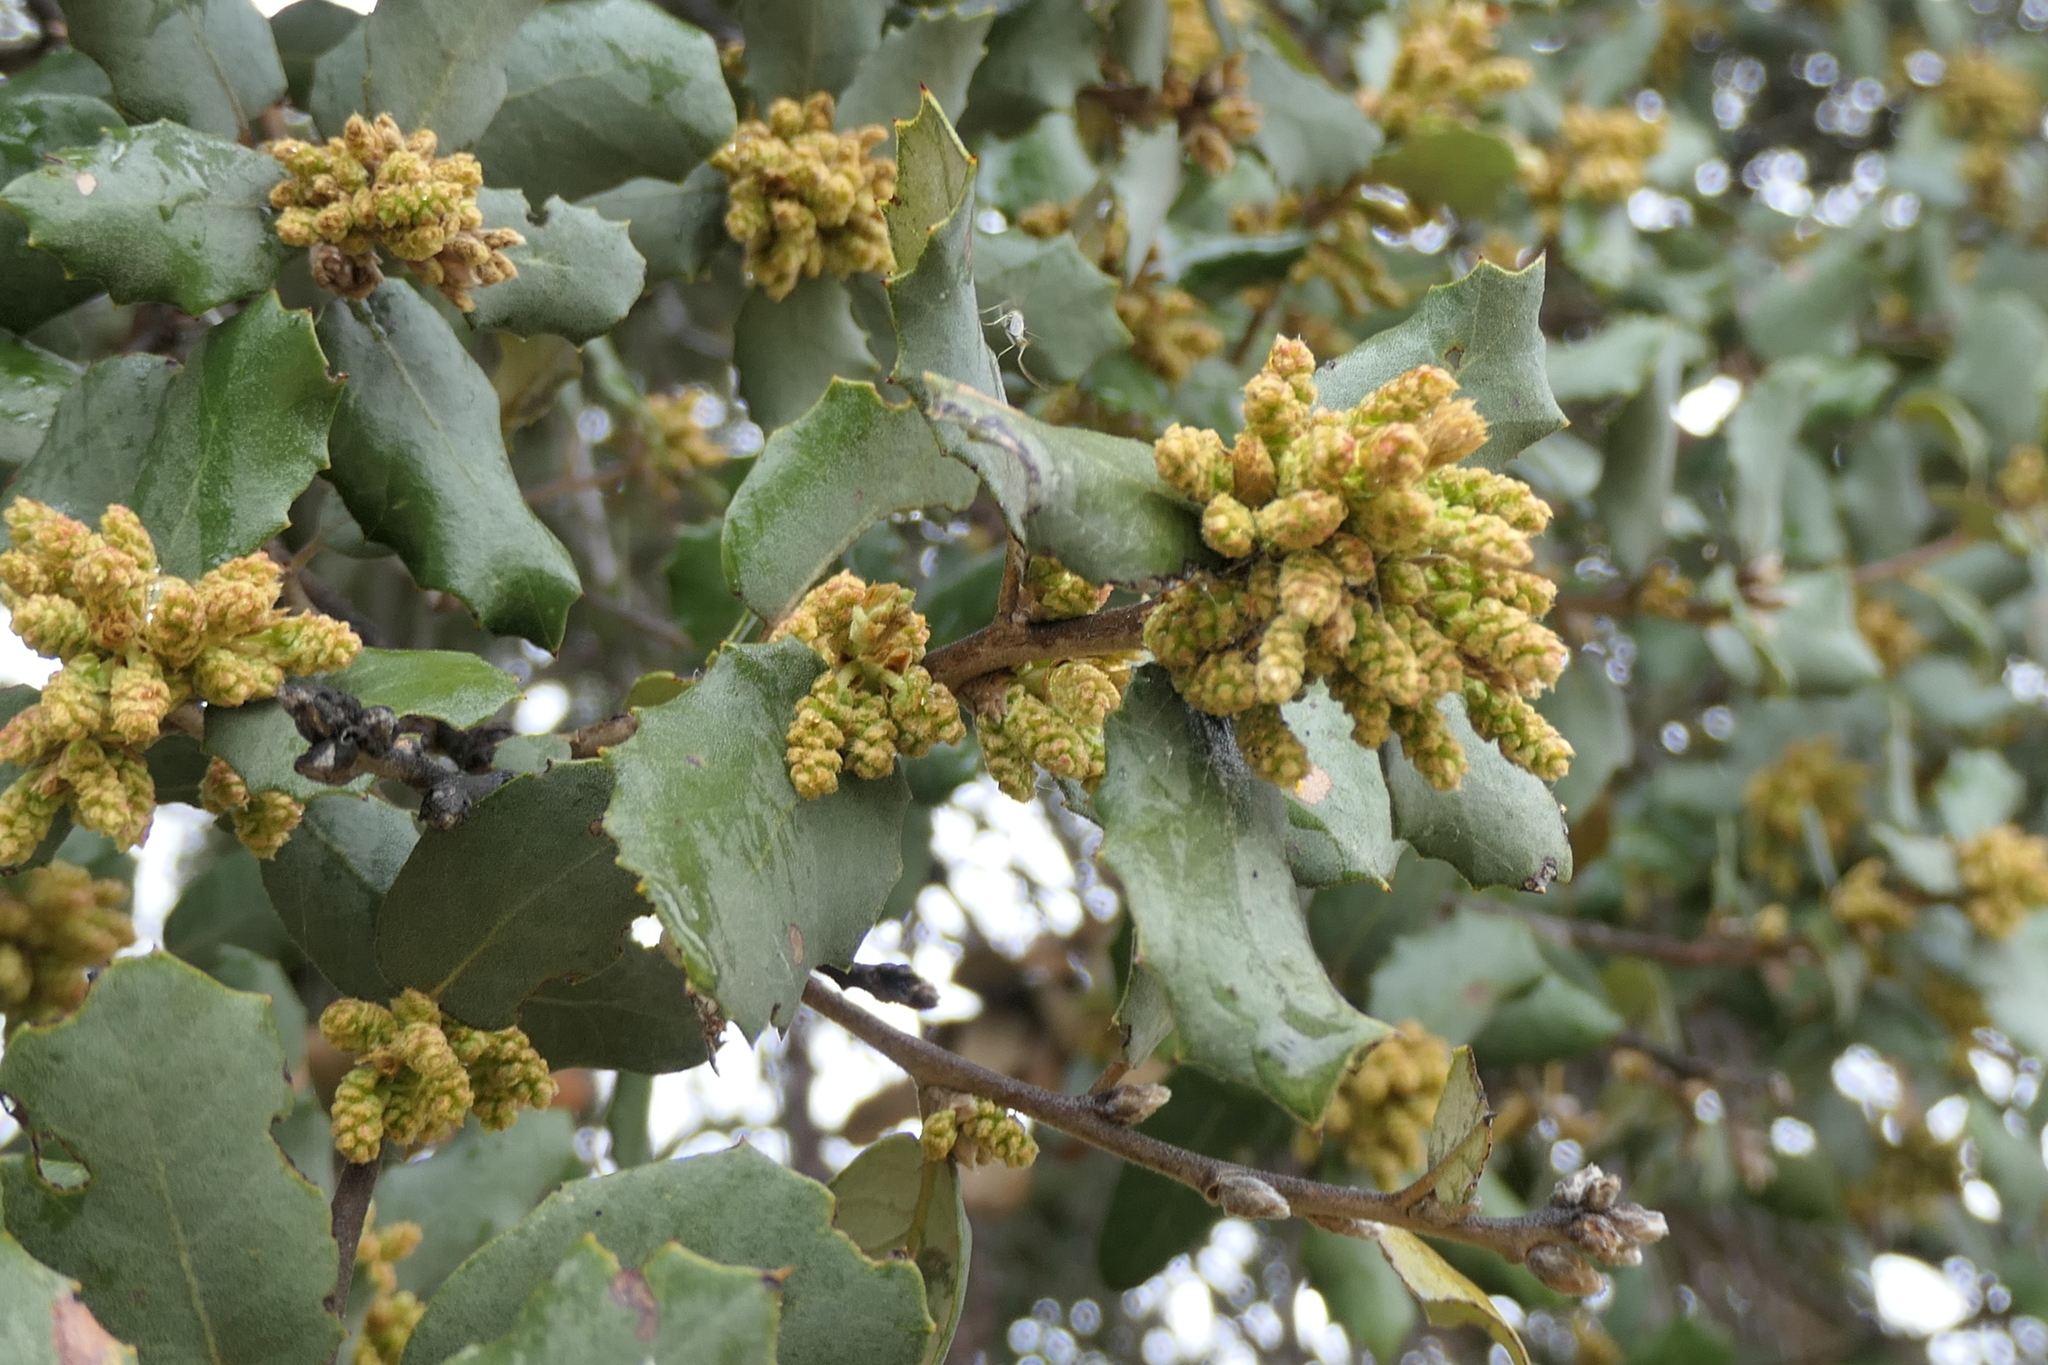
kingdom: Plantae
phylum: Tracheophyta
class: Magnoliopsida
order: Fagales
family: Fagaceae
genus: Quercus
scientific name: Quercus rotundifolia
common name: Holm oak
